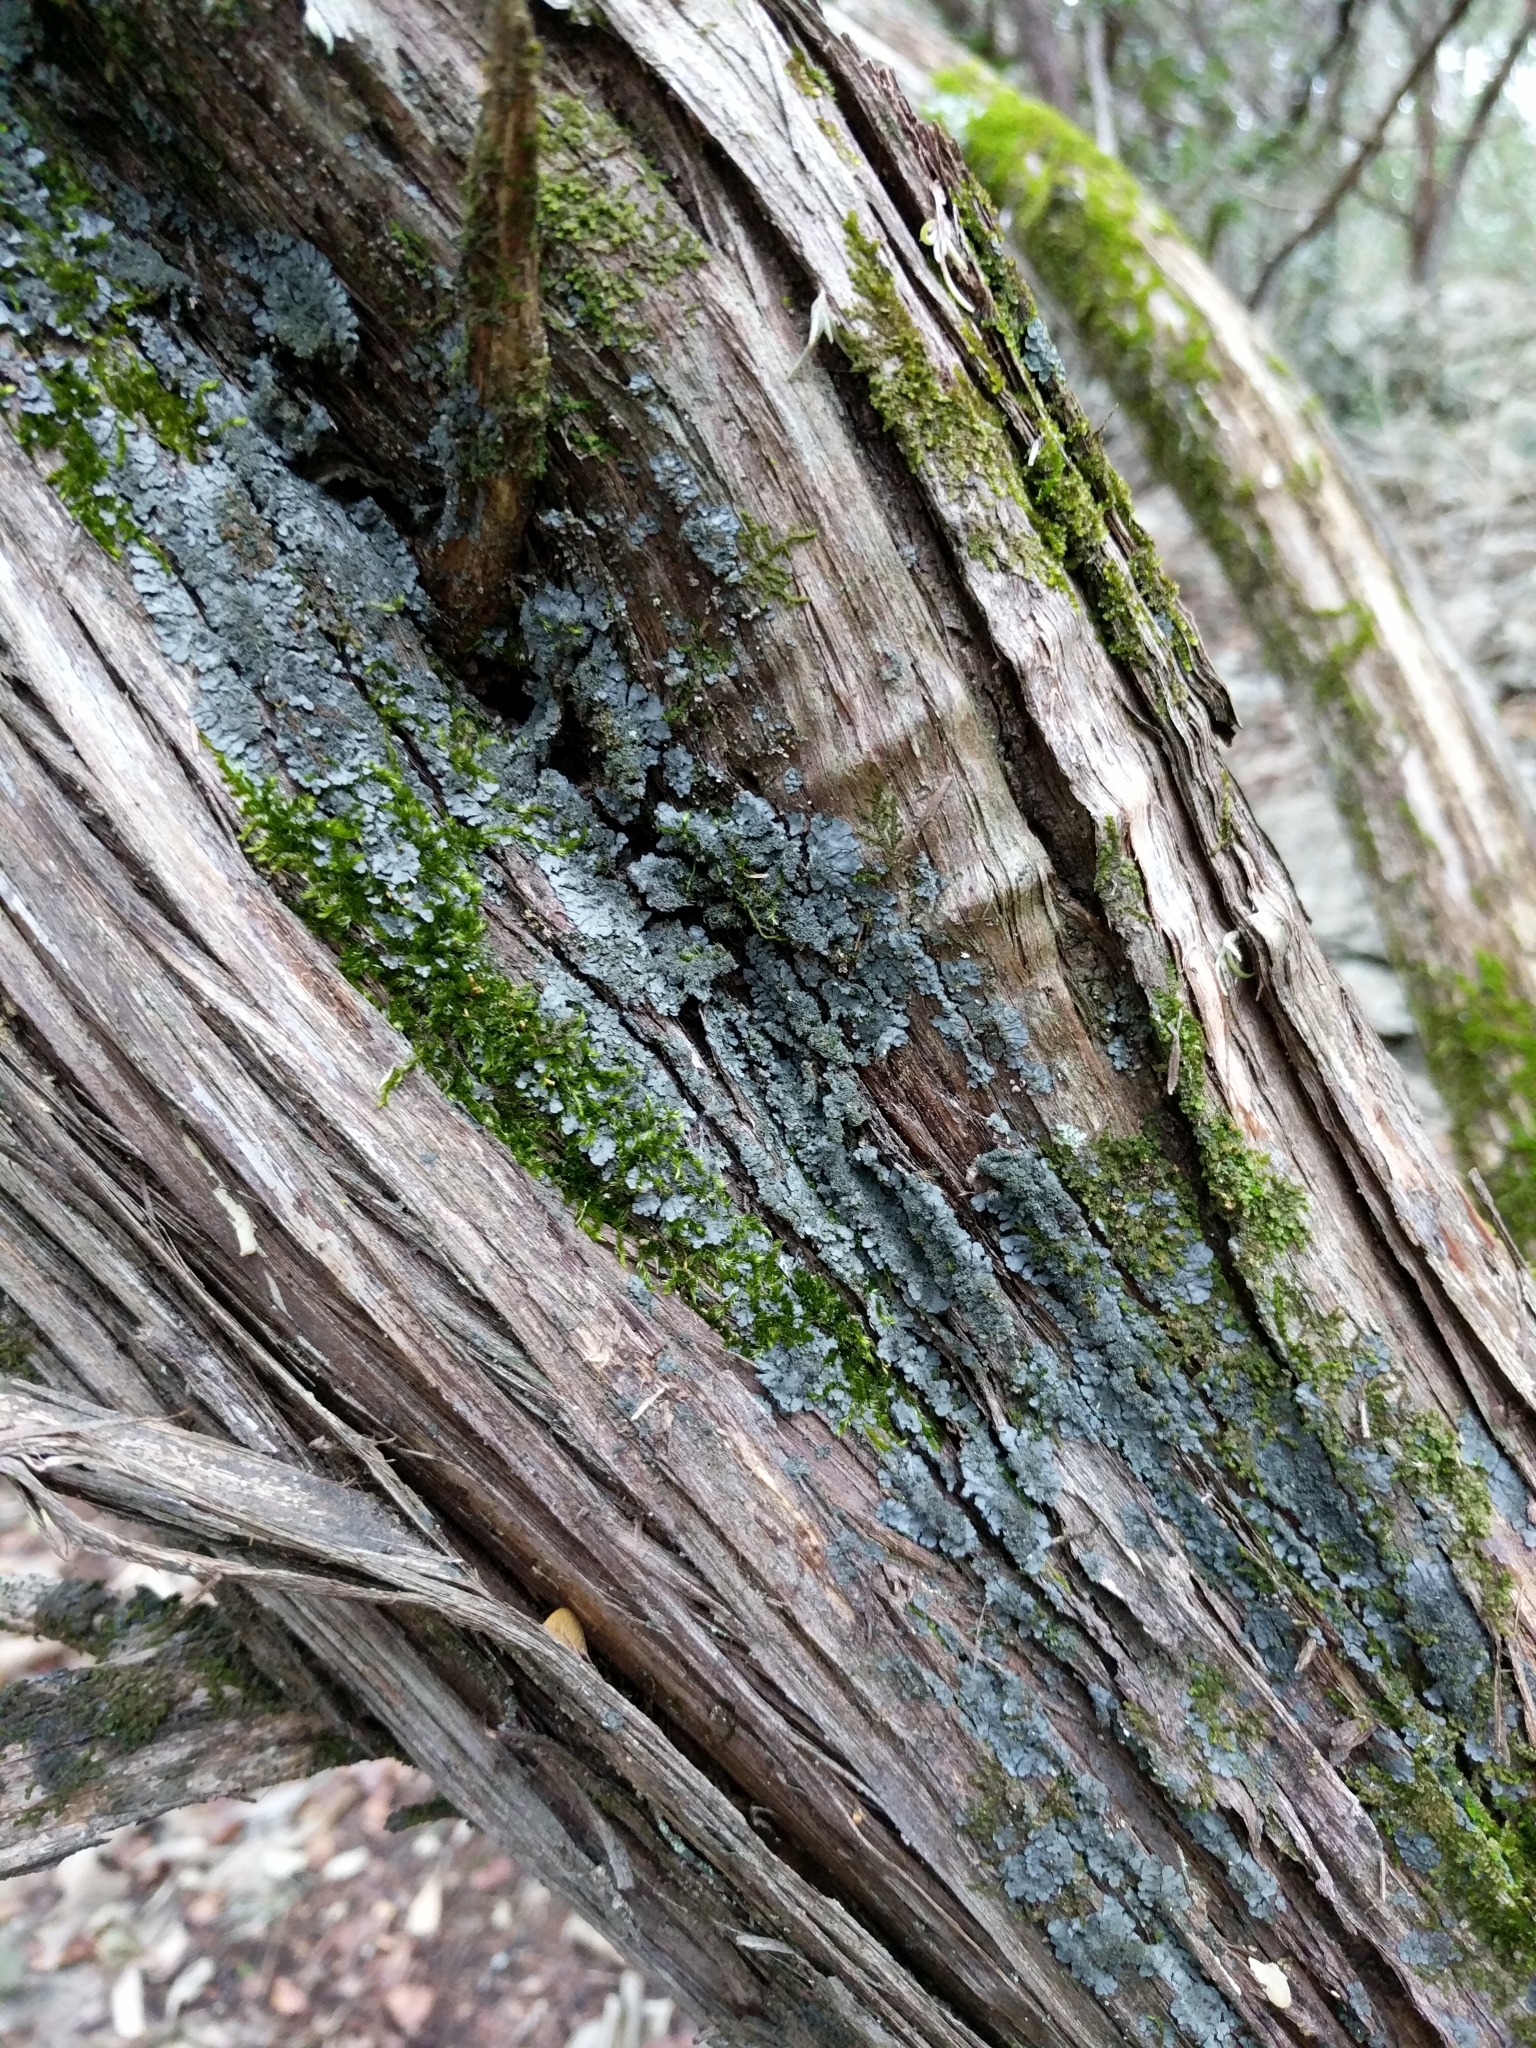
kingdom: Fungi
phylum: Ascomycota
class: Lecanoromycetes
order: Peltigerales
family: Coccocarpiaceae
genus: Coccocarpia
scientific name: Coccocarpia palmicola
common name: Salted shell lichen
